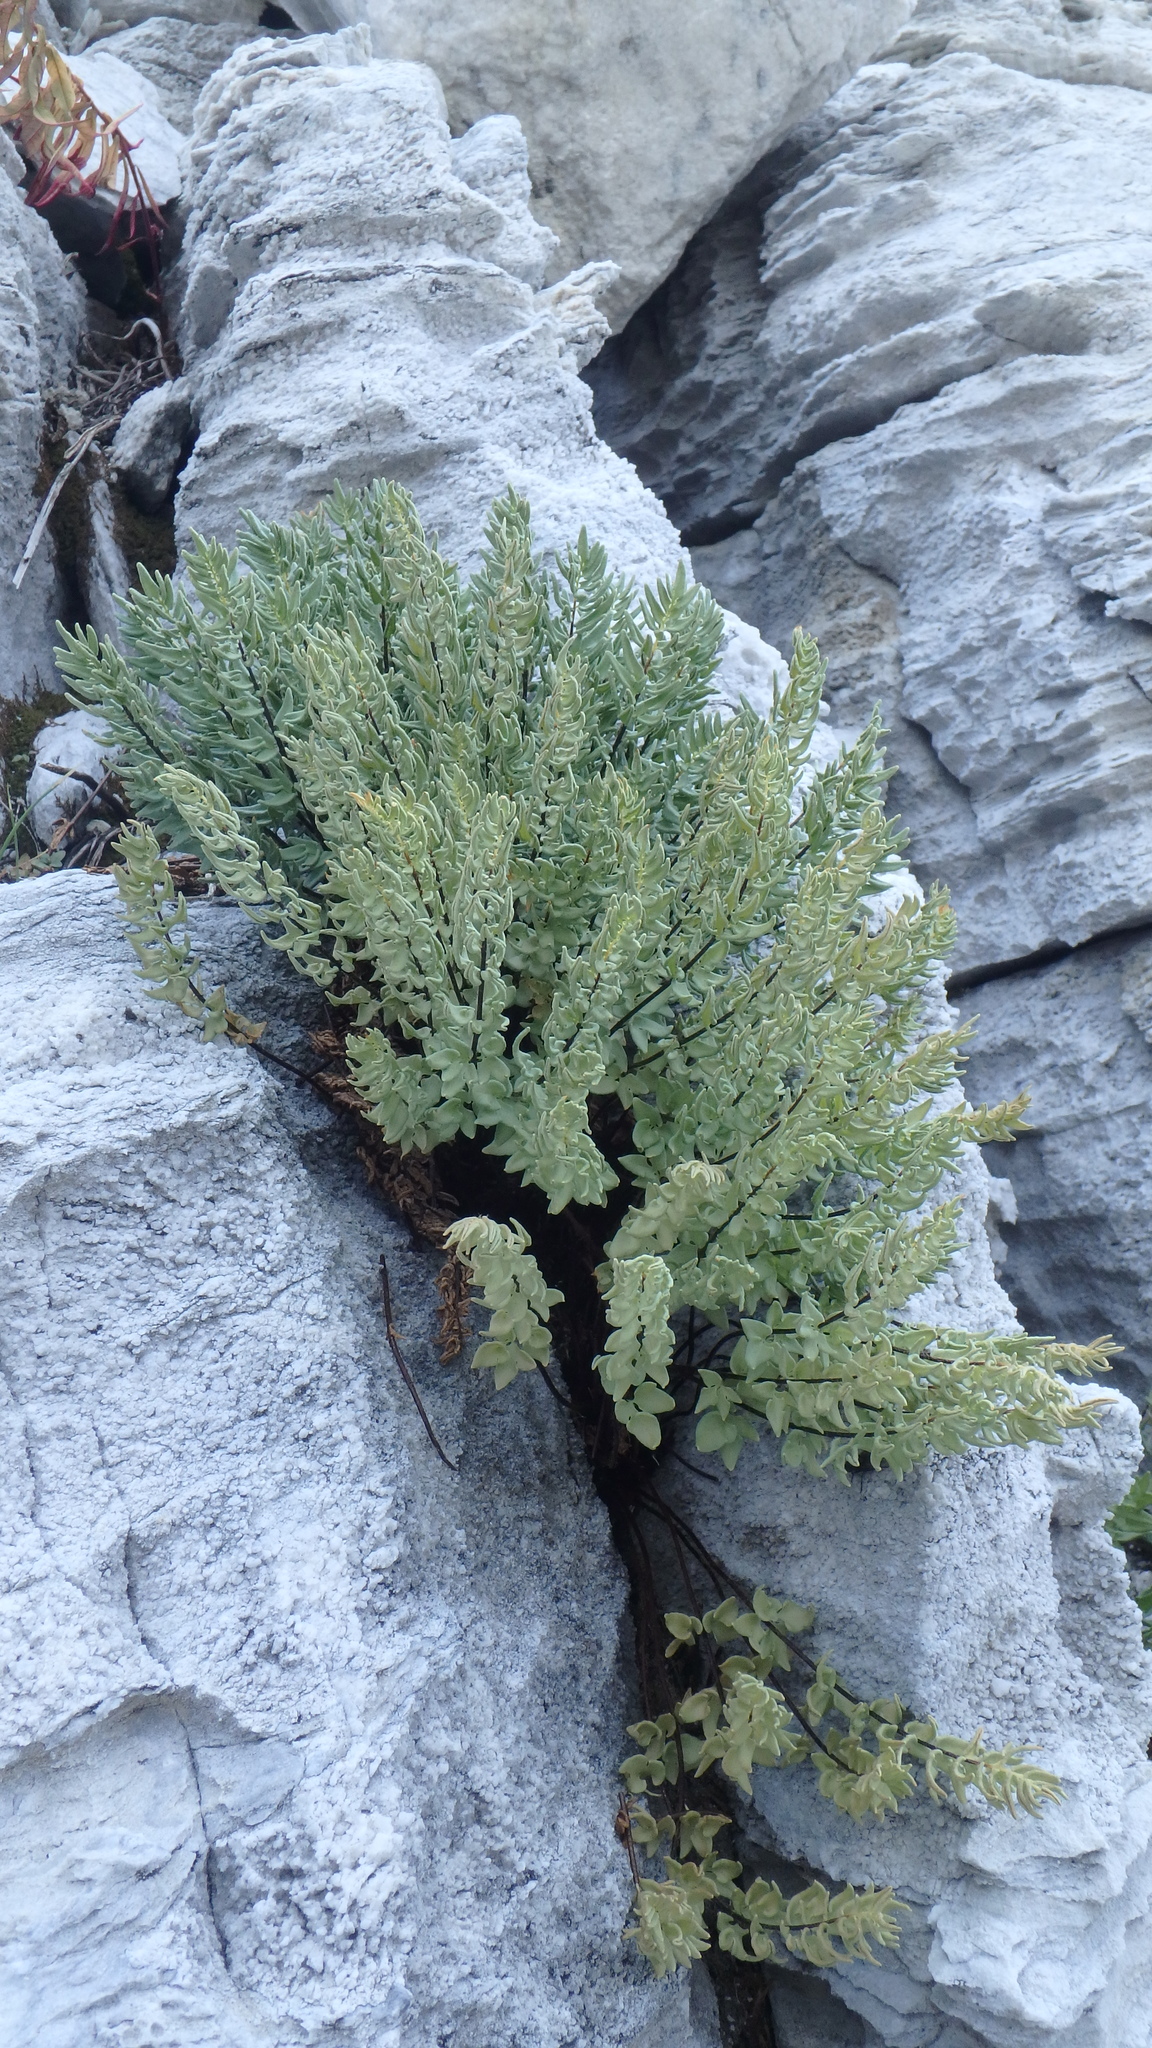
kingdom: Plantae
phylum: Tracheophyta
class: Polypodiopsida
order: Polypodiales
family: Pteridaceae
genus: Pellaea
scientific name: Pellaea breweri
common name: Brewer's cliffbrake
